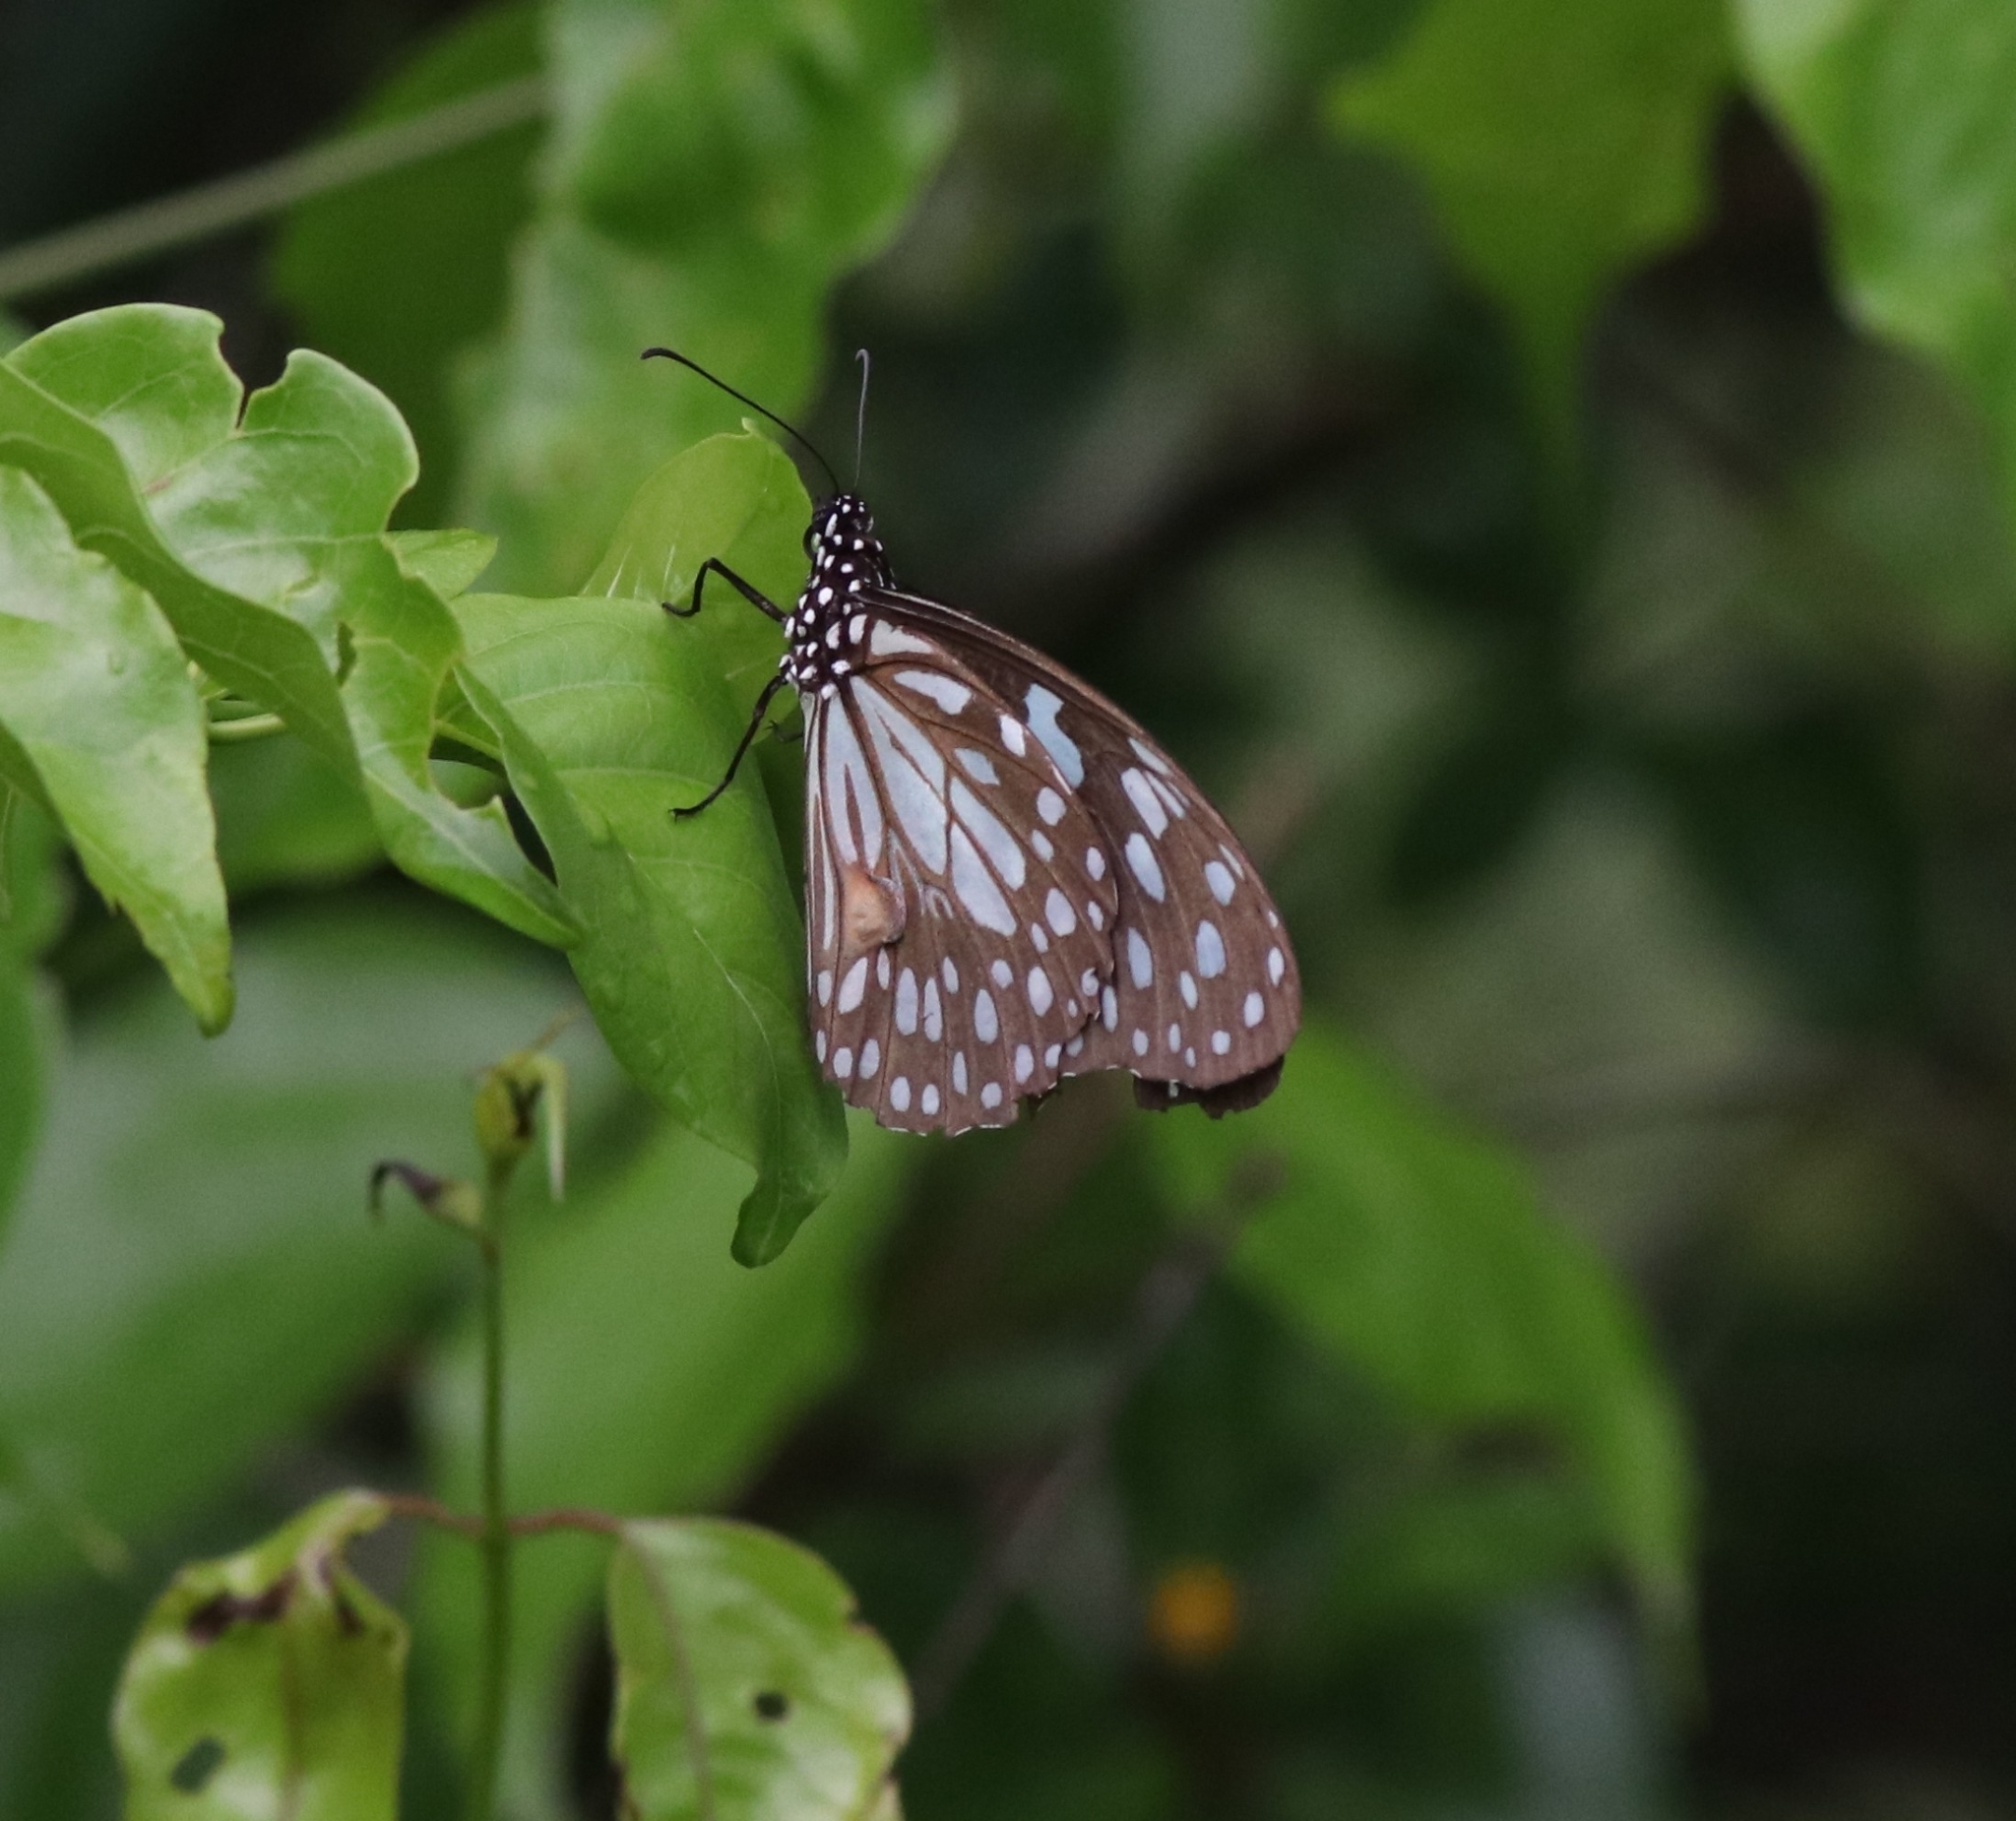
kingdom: Animalia
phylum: Arthropoda
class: Insecta
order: Lepidoptera
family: Nymphalidae
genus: Tirumala
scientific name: Tirumala limniace
